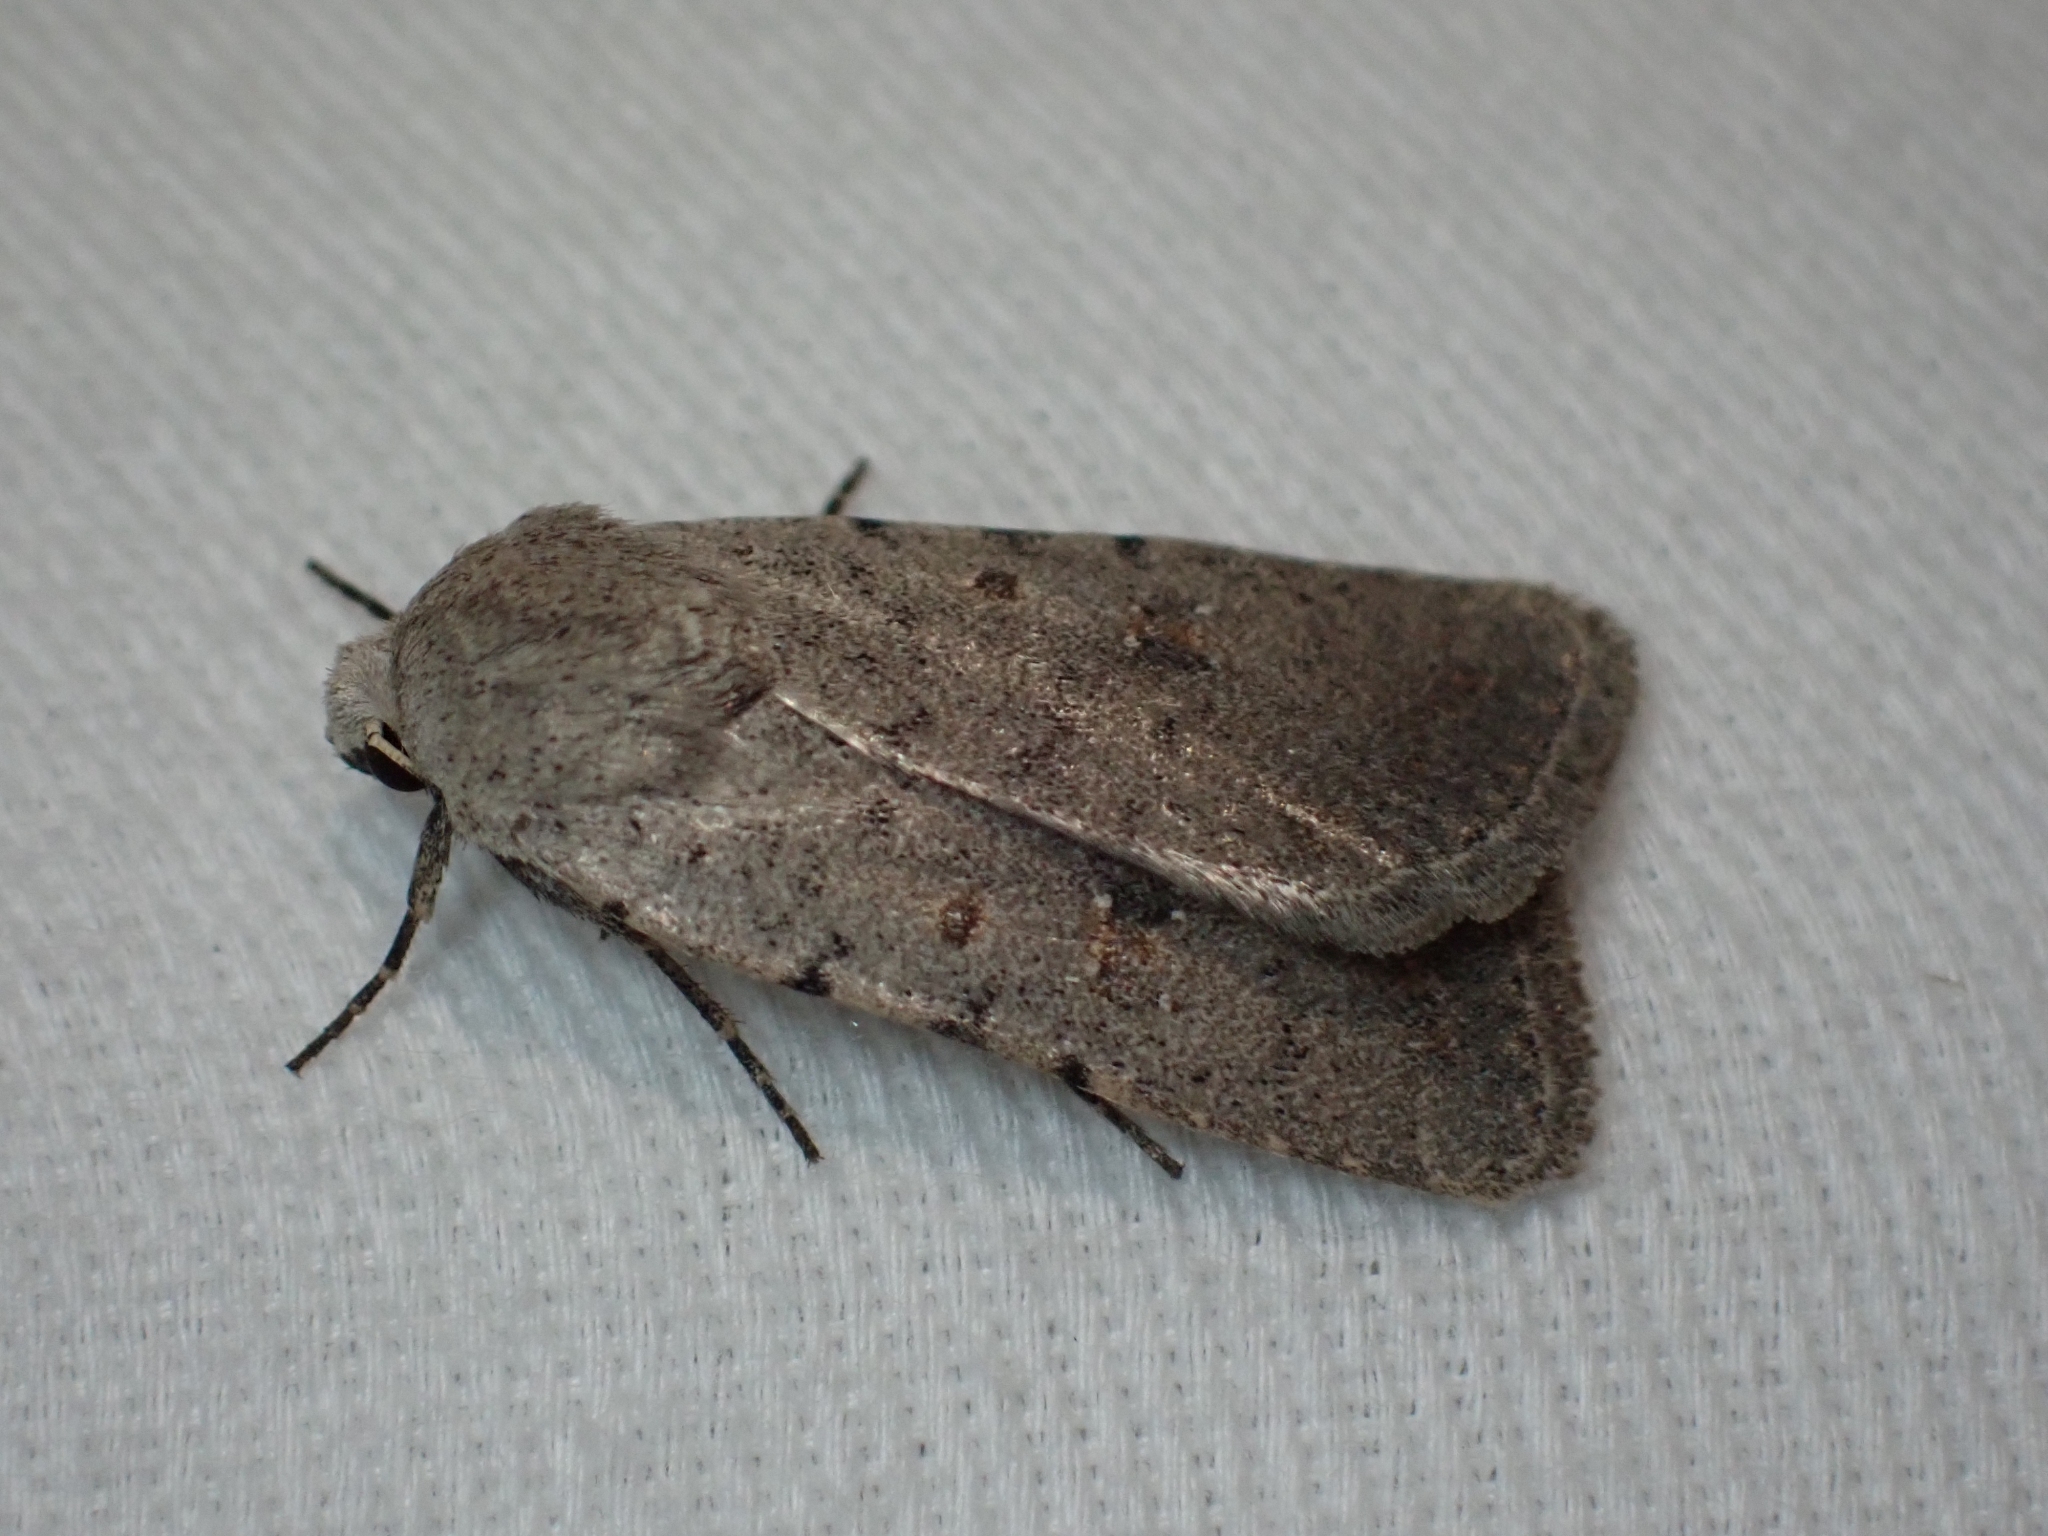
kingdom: Animalia
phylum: Arthropoda
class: Insecta
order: Lepidoptera
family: Noctuidae
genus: Caradrina
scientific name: Caradrina montana
